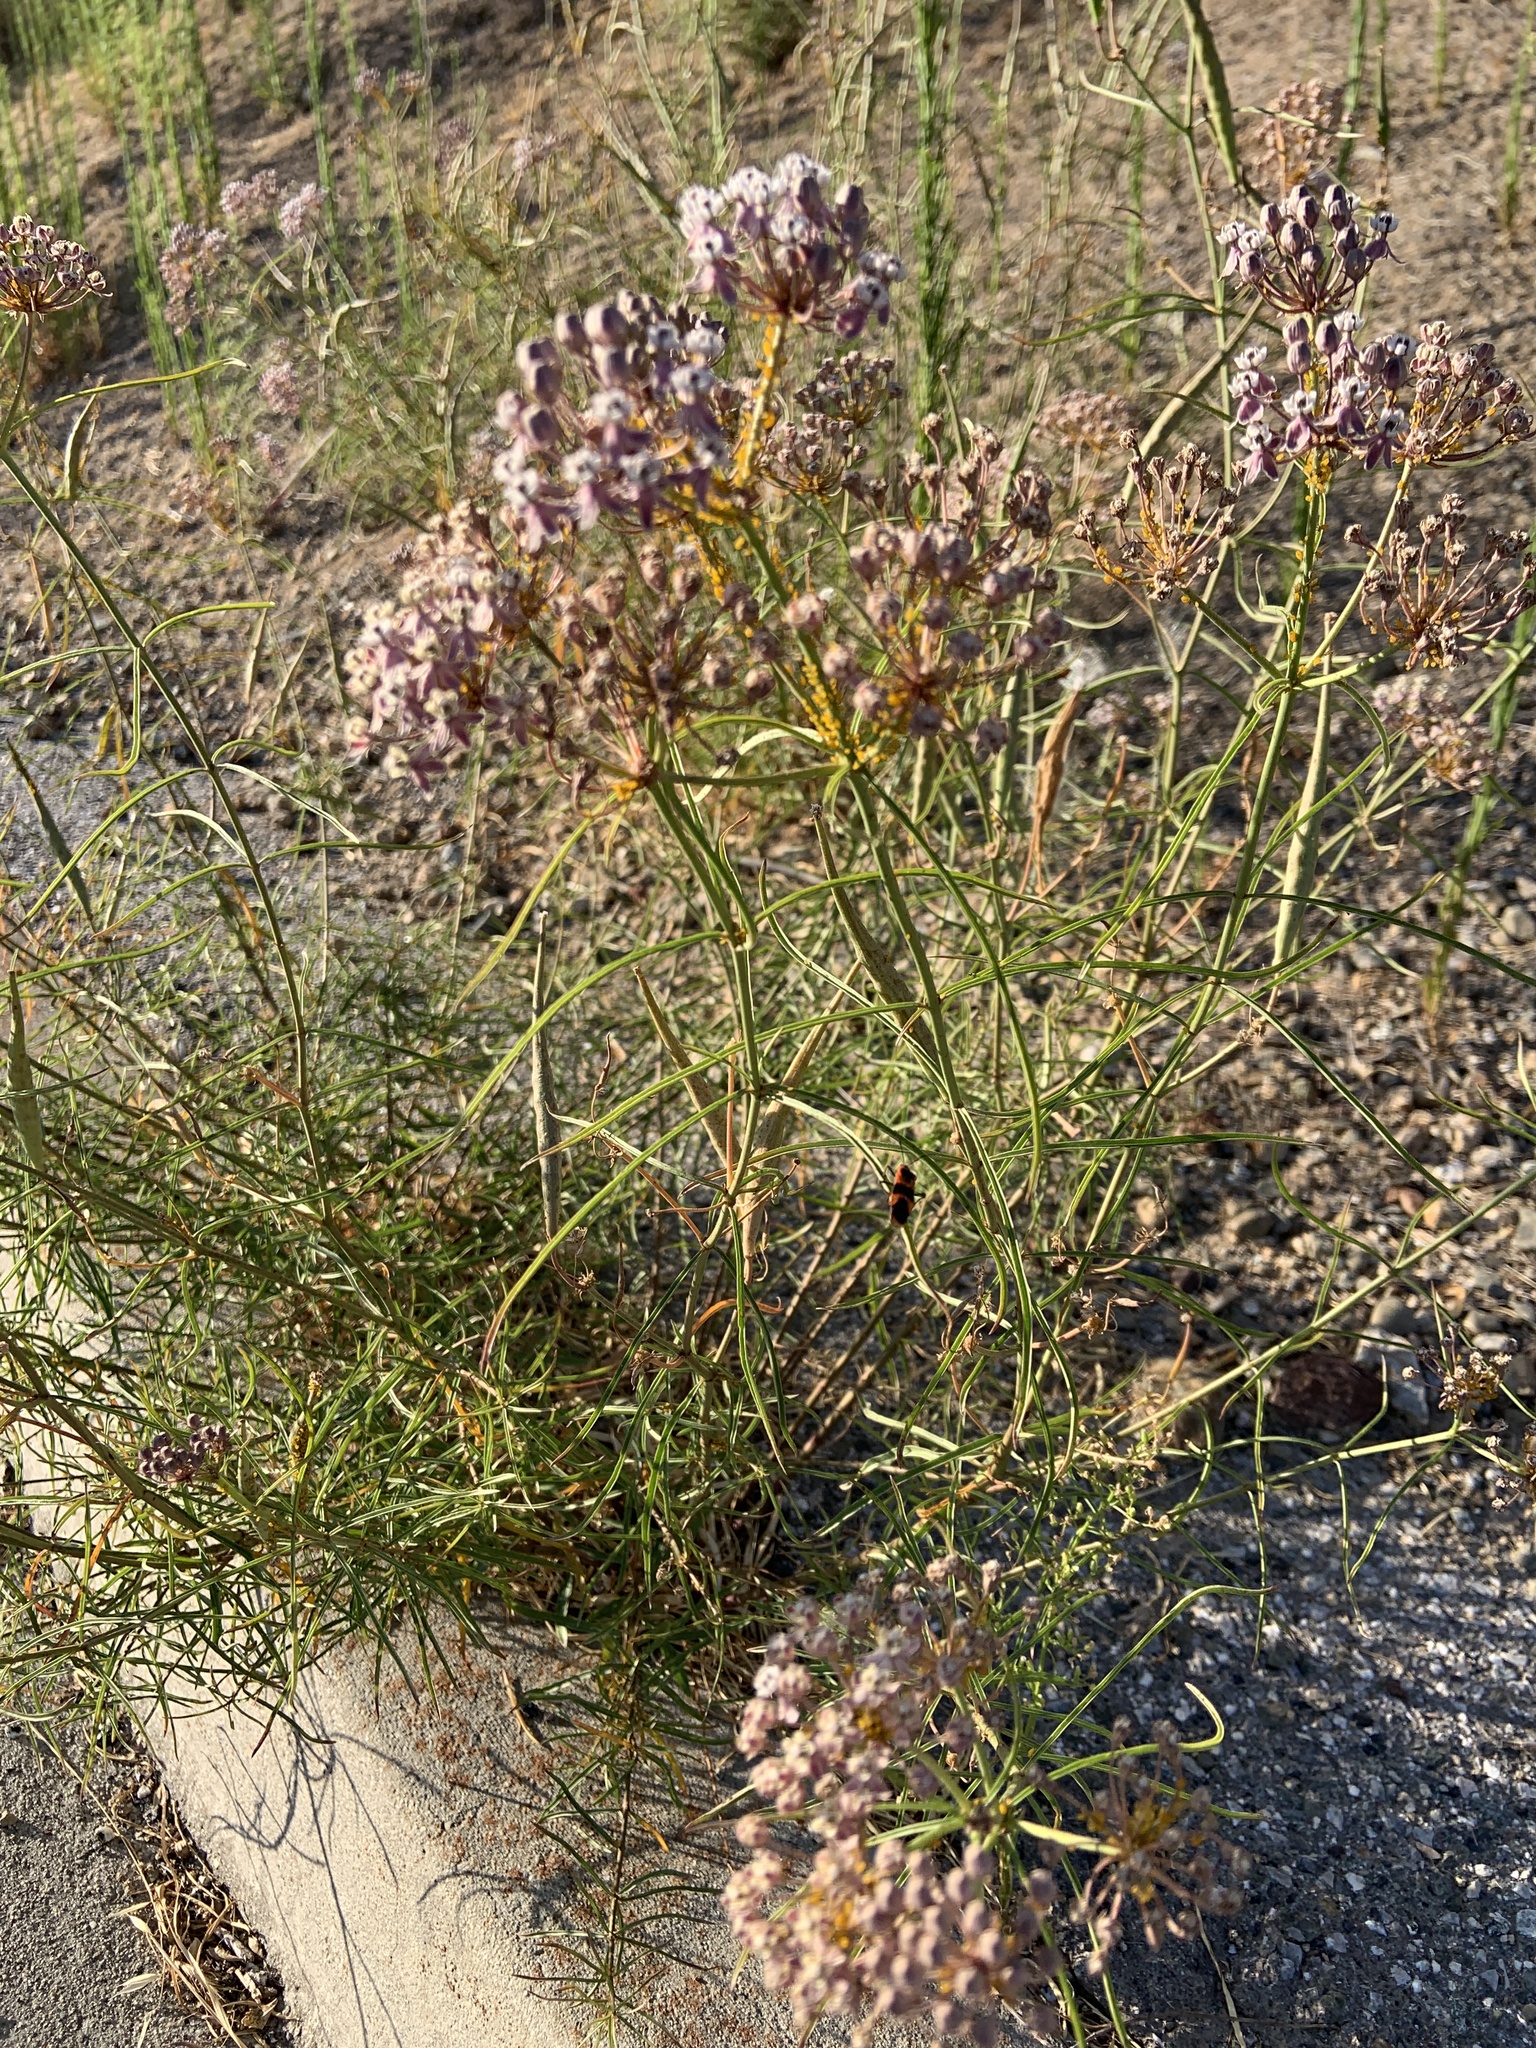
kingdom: Plantae
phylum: Tracheophyta
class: Magnoliopsida
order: Gentianales
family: Apocynaceae
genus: Asclepias
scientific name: Asclepias fascicularis
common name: Mexican milkweed
